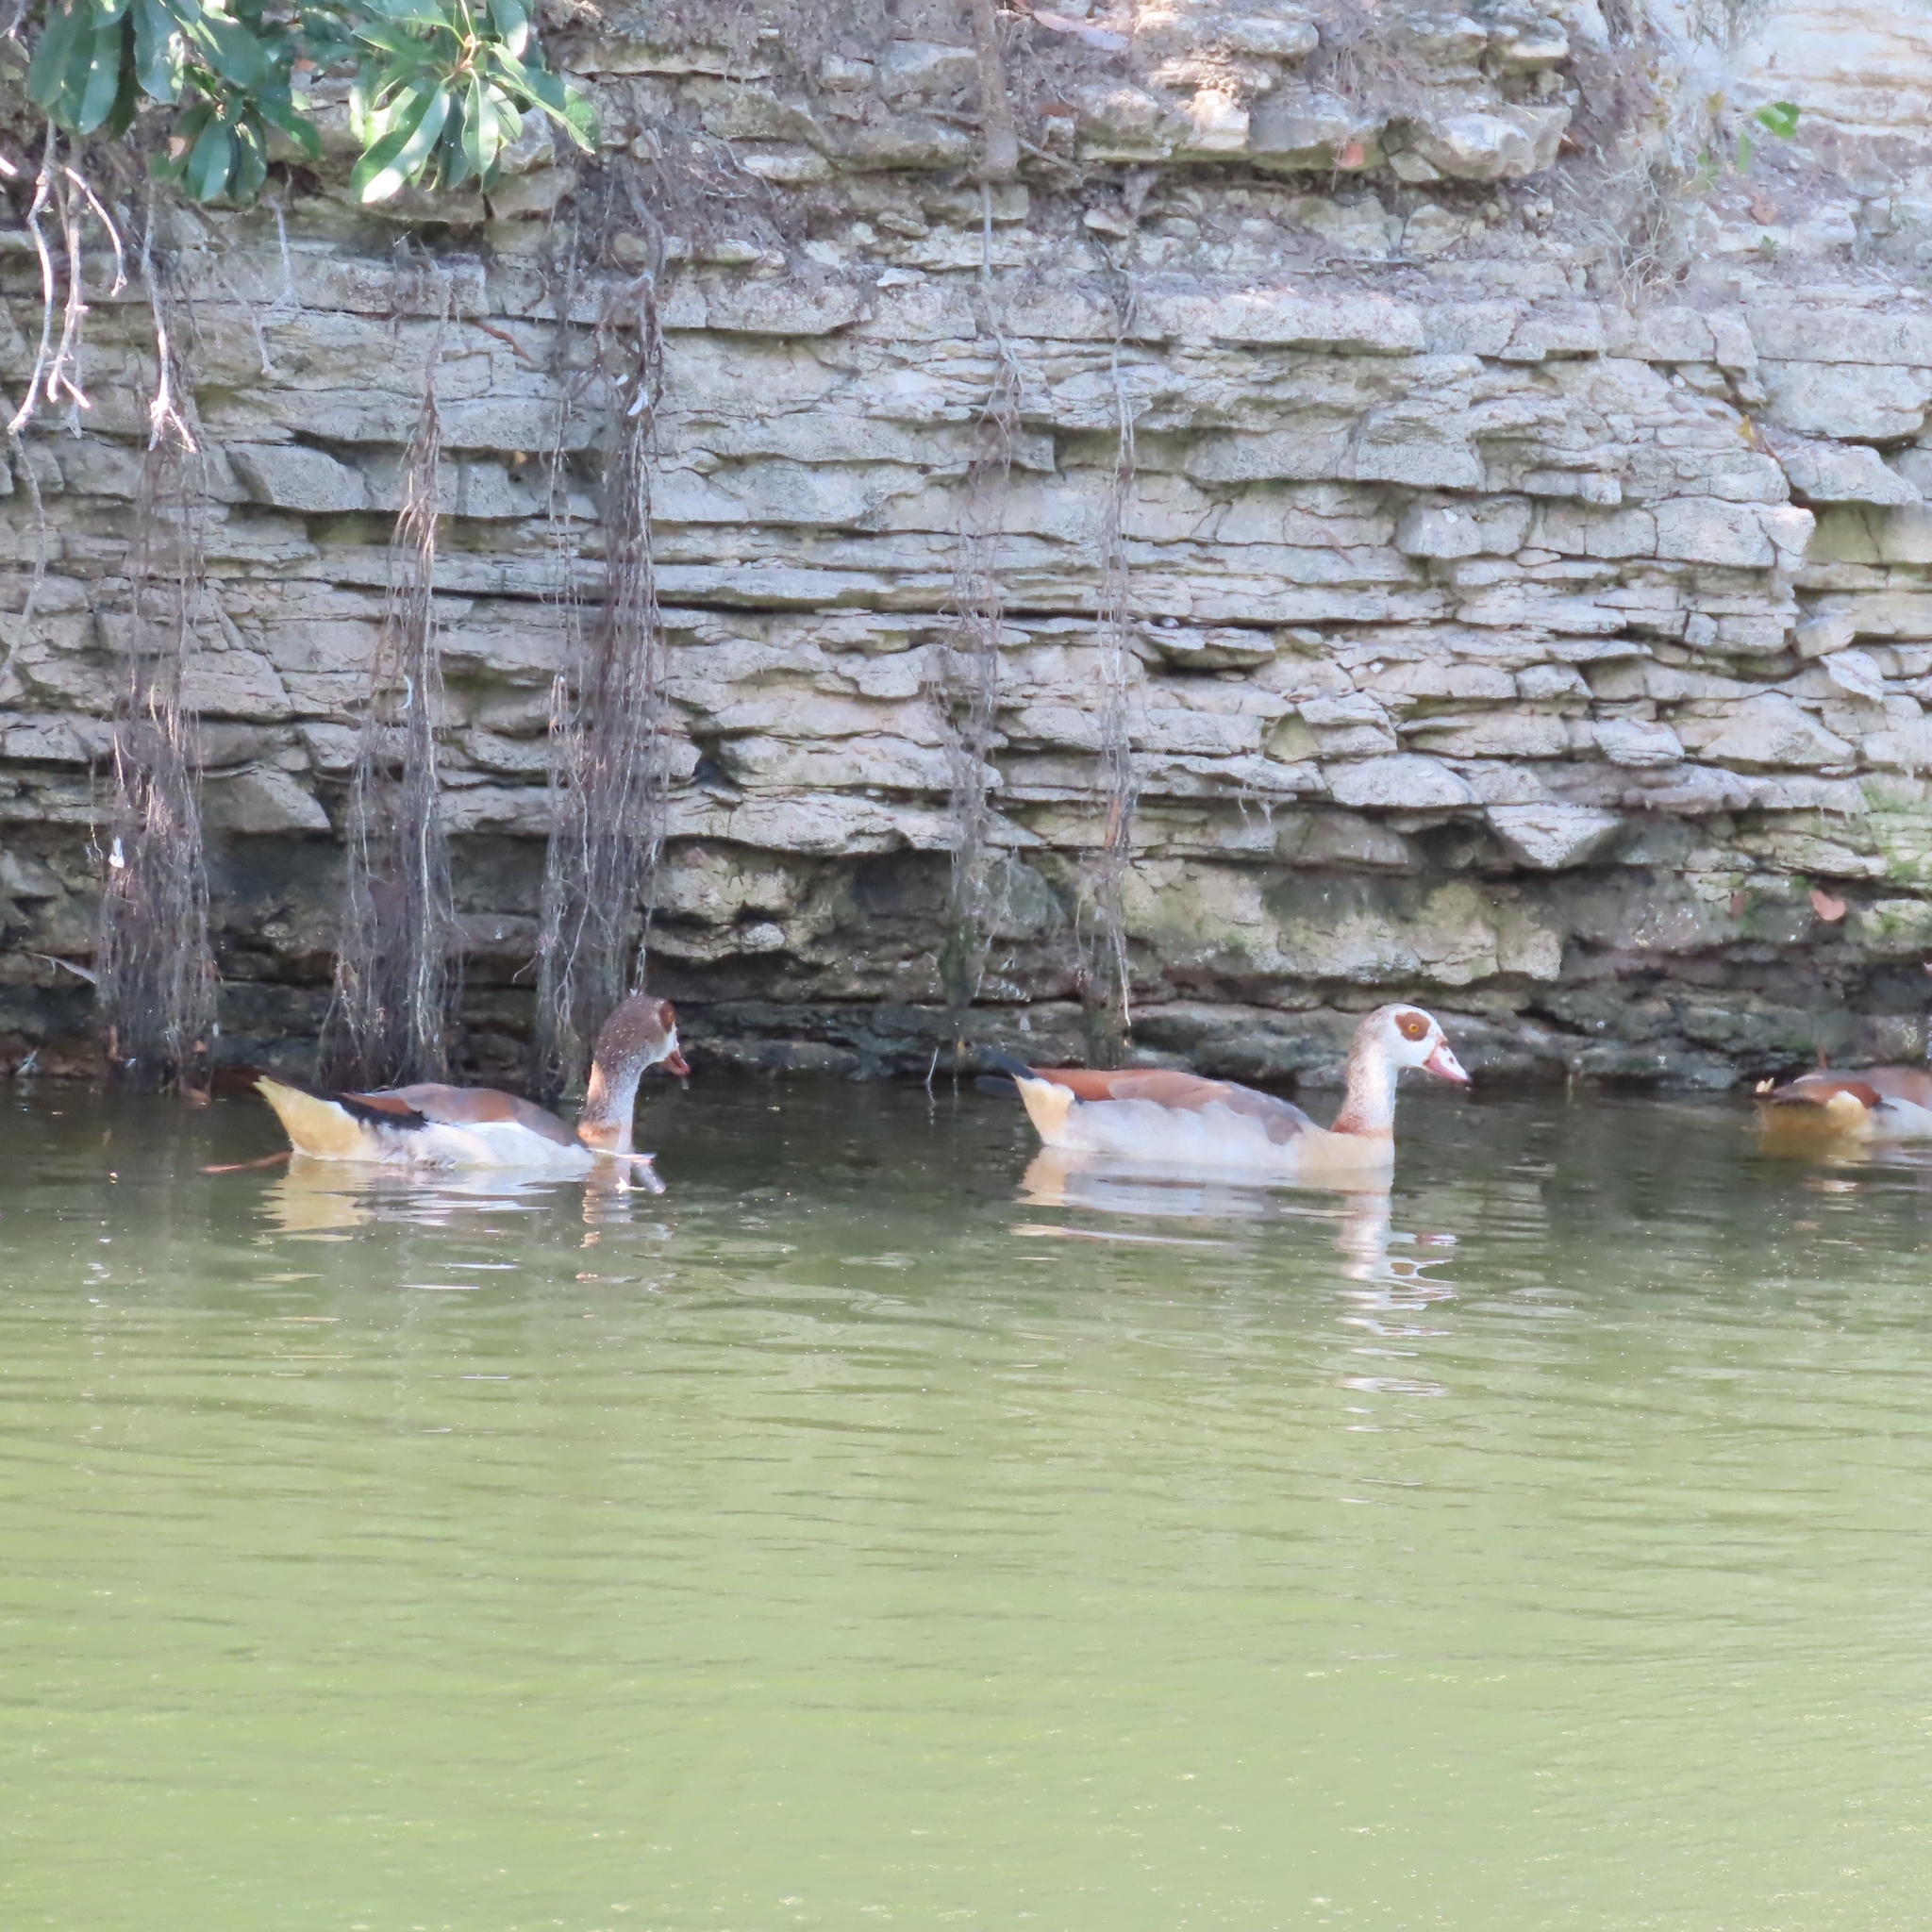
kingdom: Animalia
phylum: Chordata
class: Aves
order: Anseriformes
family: Anatidae
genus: Alopochen
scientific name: Alopochen aegyptiaca
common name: Egyptian goose
